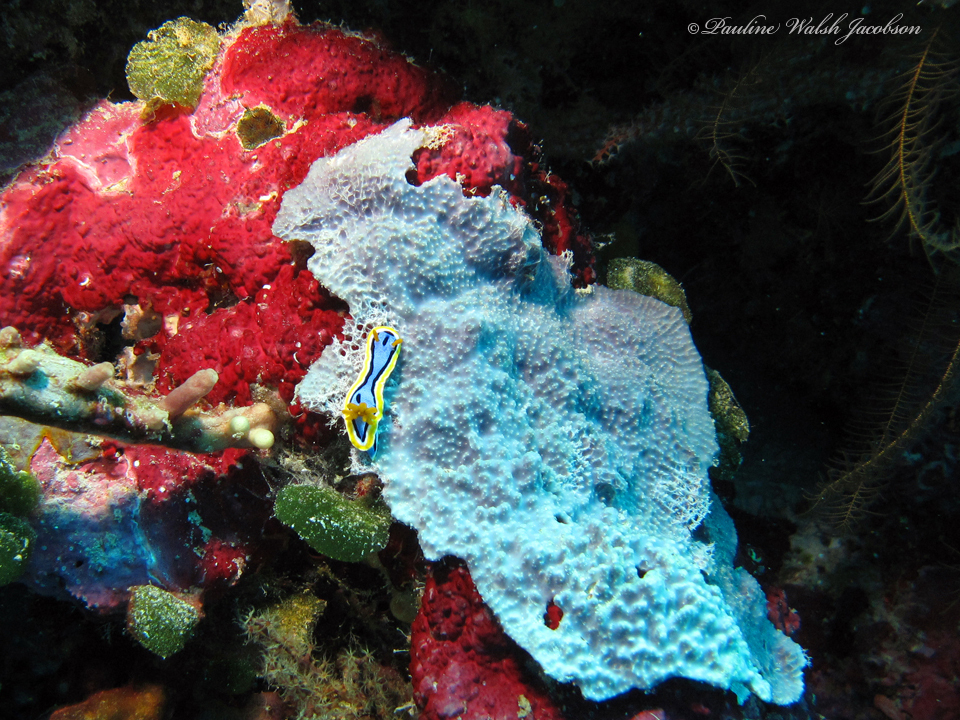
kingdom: Animalia
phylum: Mollusca
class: Gastropoda
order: Nudibranchia
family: Chromodorididae
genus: Chromodoris
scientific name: Chromodoris annae
